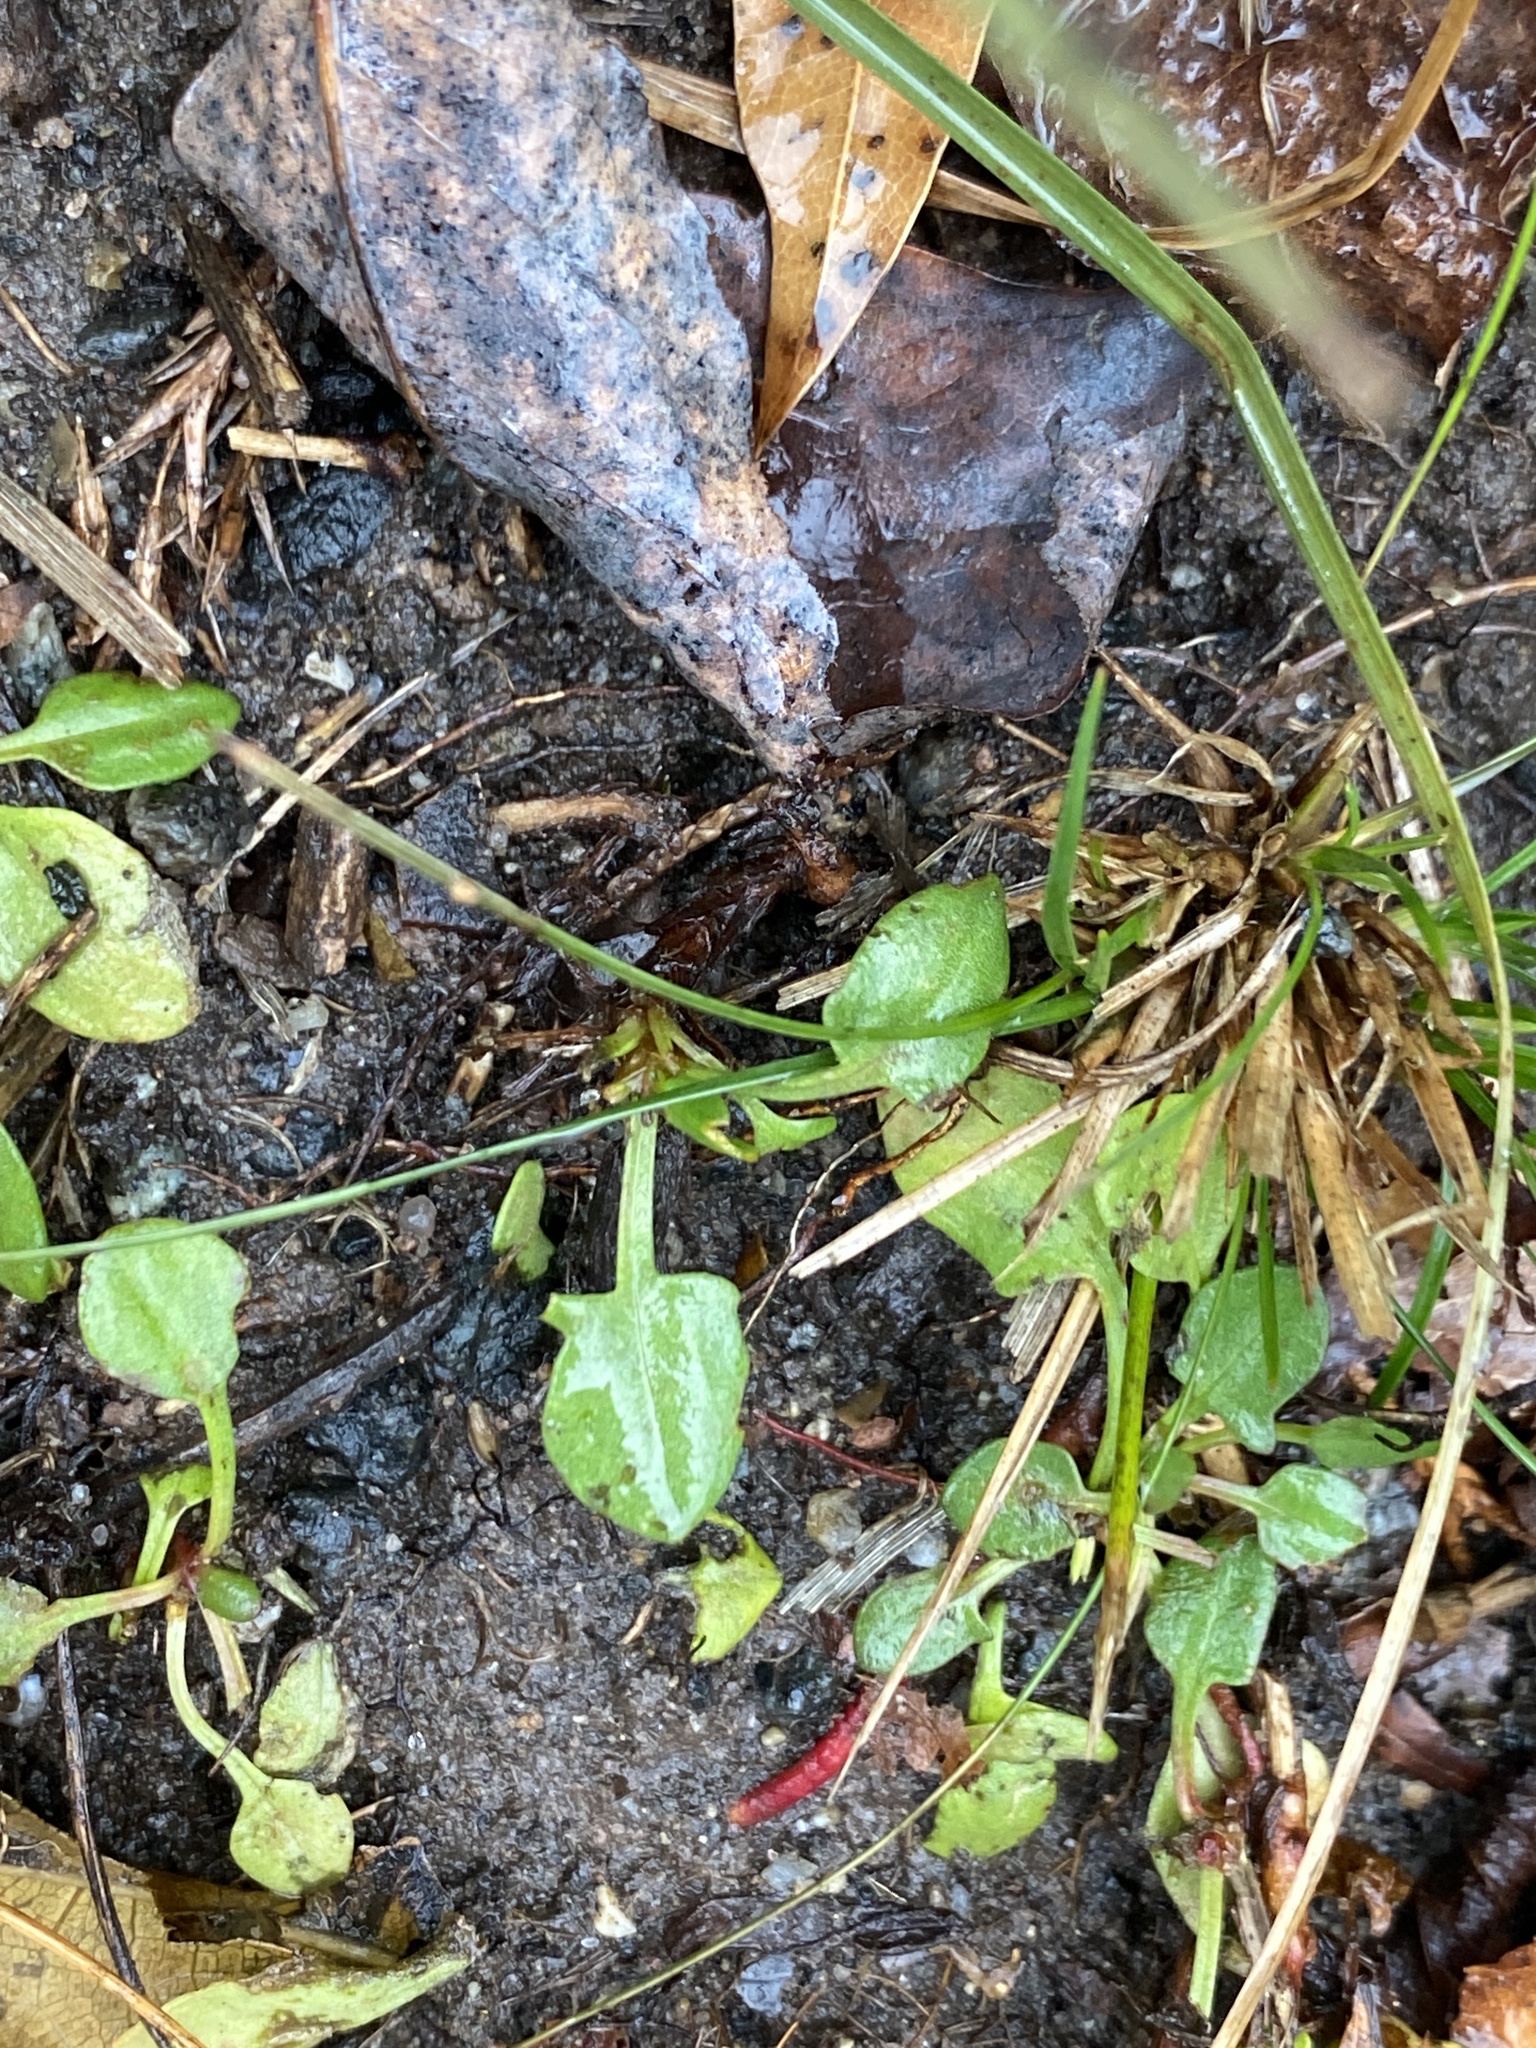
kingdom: Plantae
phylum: Tracheophyta
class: Magnoliopsida
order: Caryophyllales
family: Polygonaceae
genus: Rumex
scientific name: Rumex acetosella
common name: Common sheep sorrel
